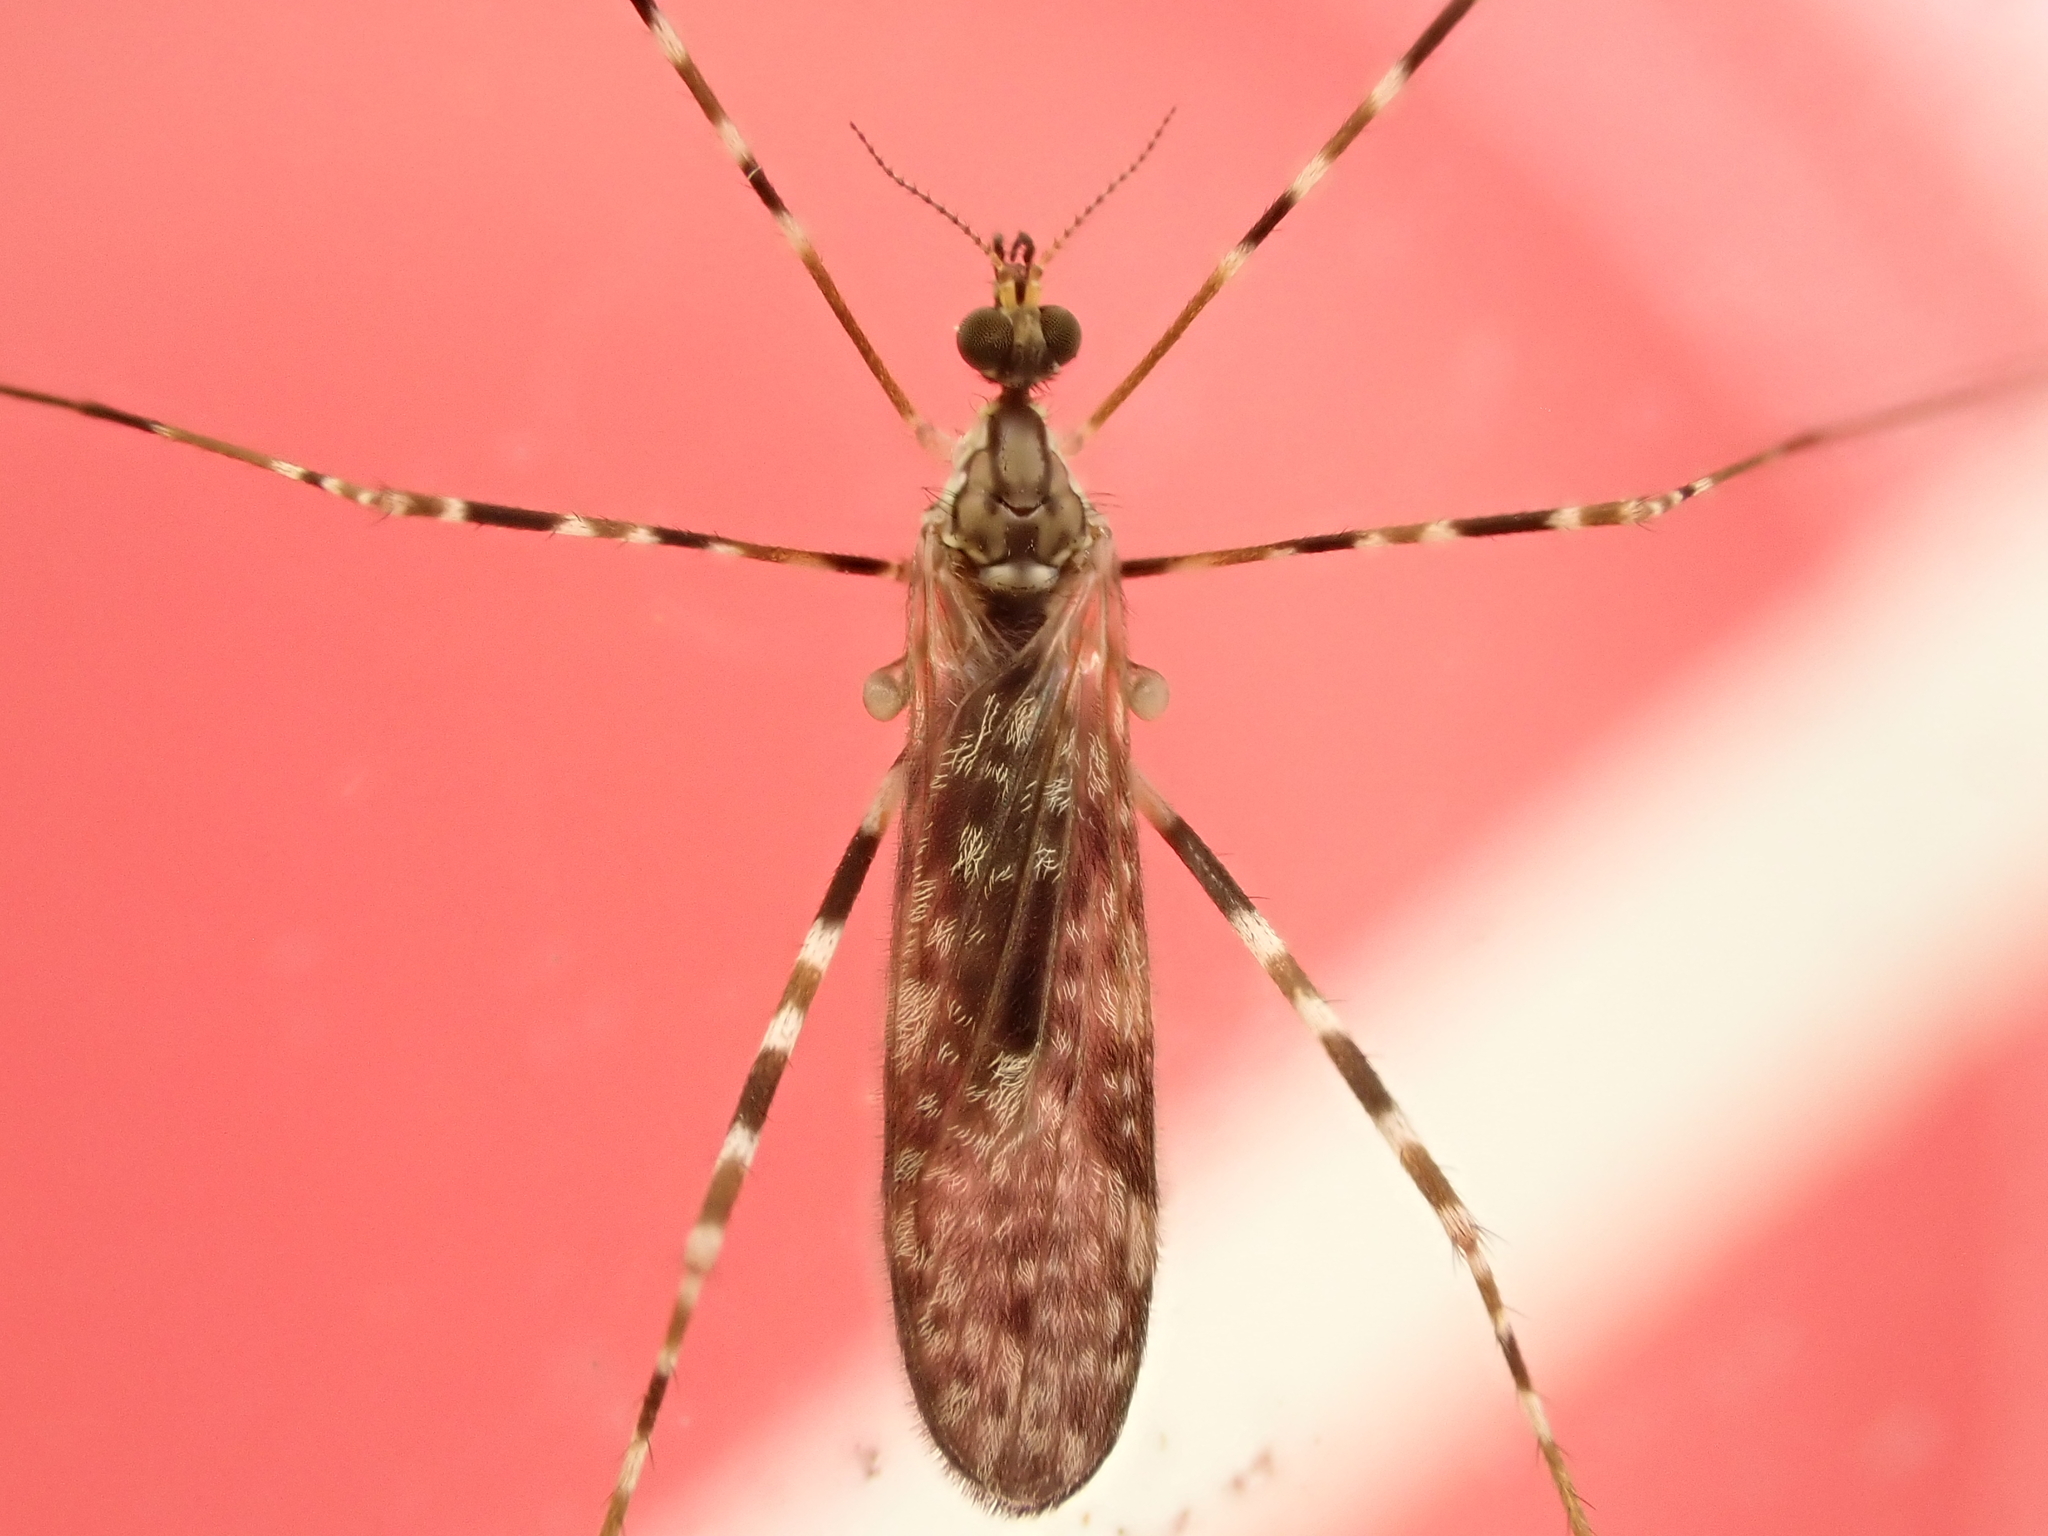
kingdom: Animalia
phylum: Arthropoda
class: Insecta
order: Diptera
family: Limoniidae
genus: Amphineurus
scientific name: Amphineurus hudsoni
